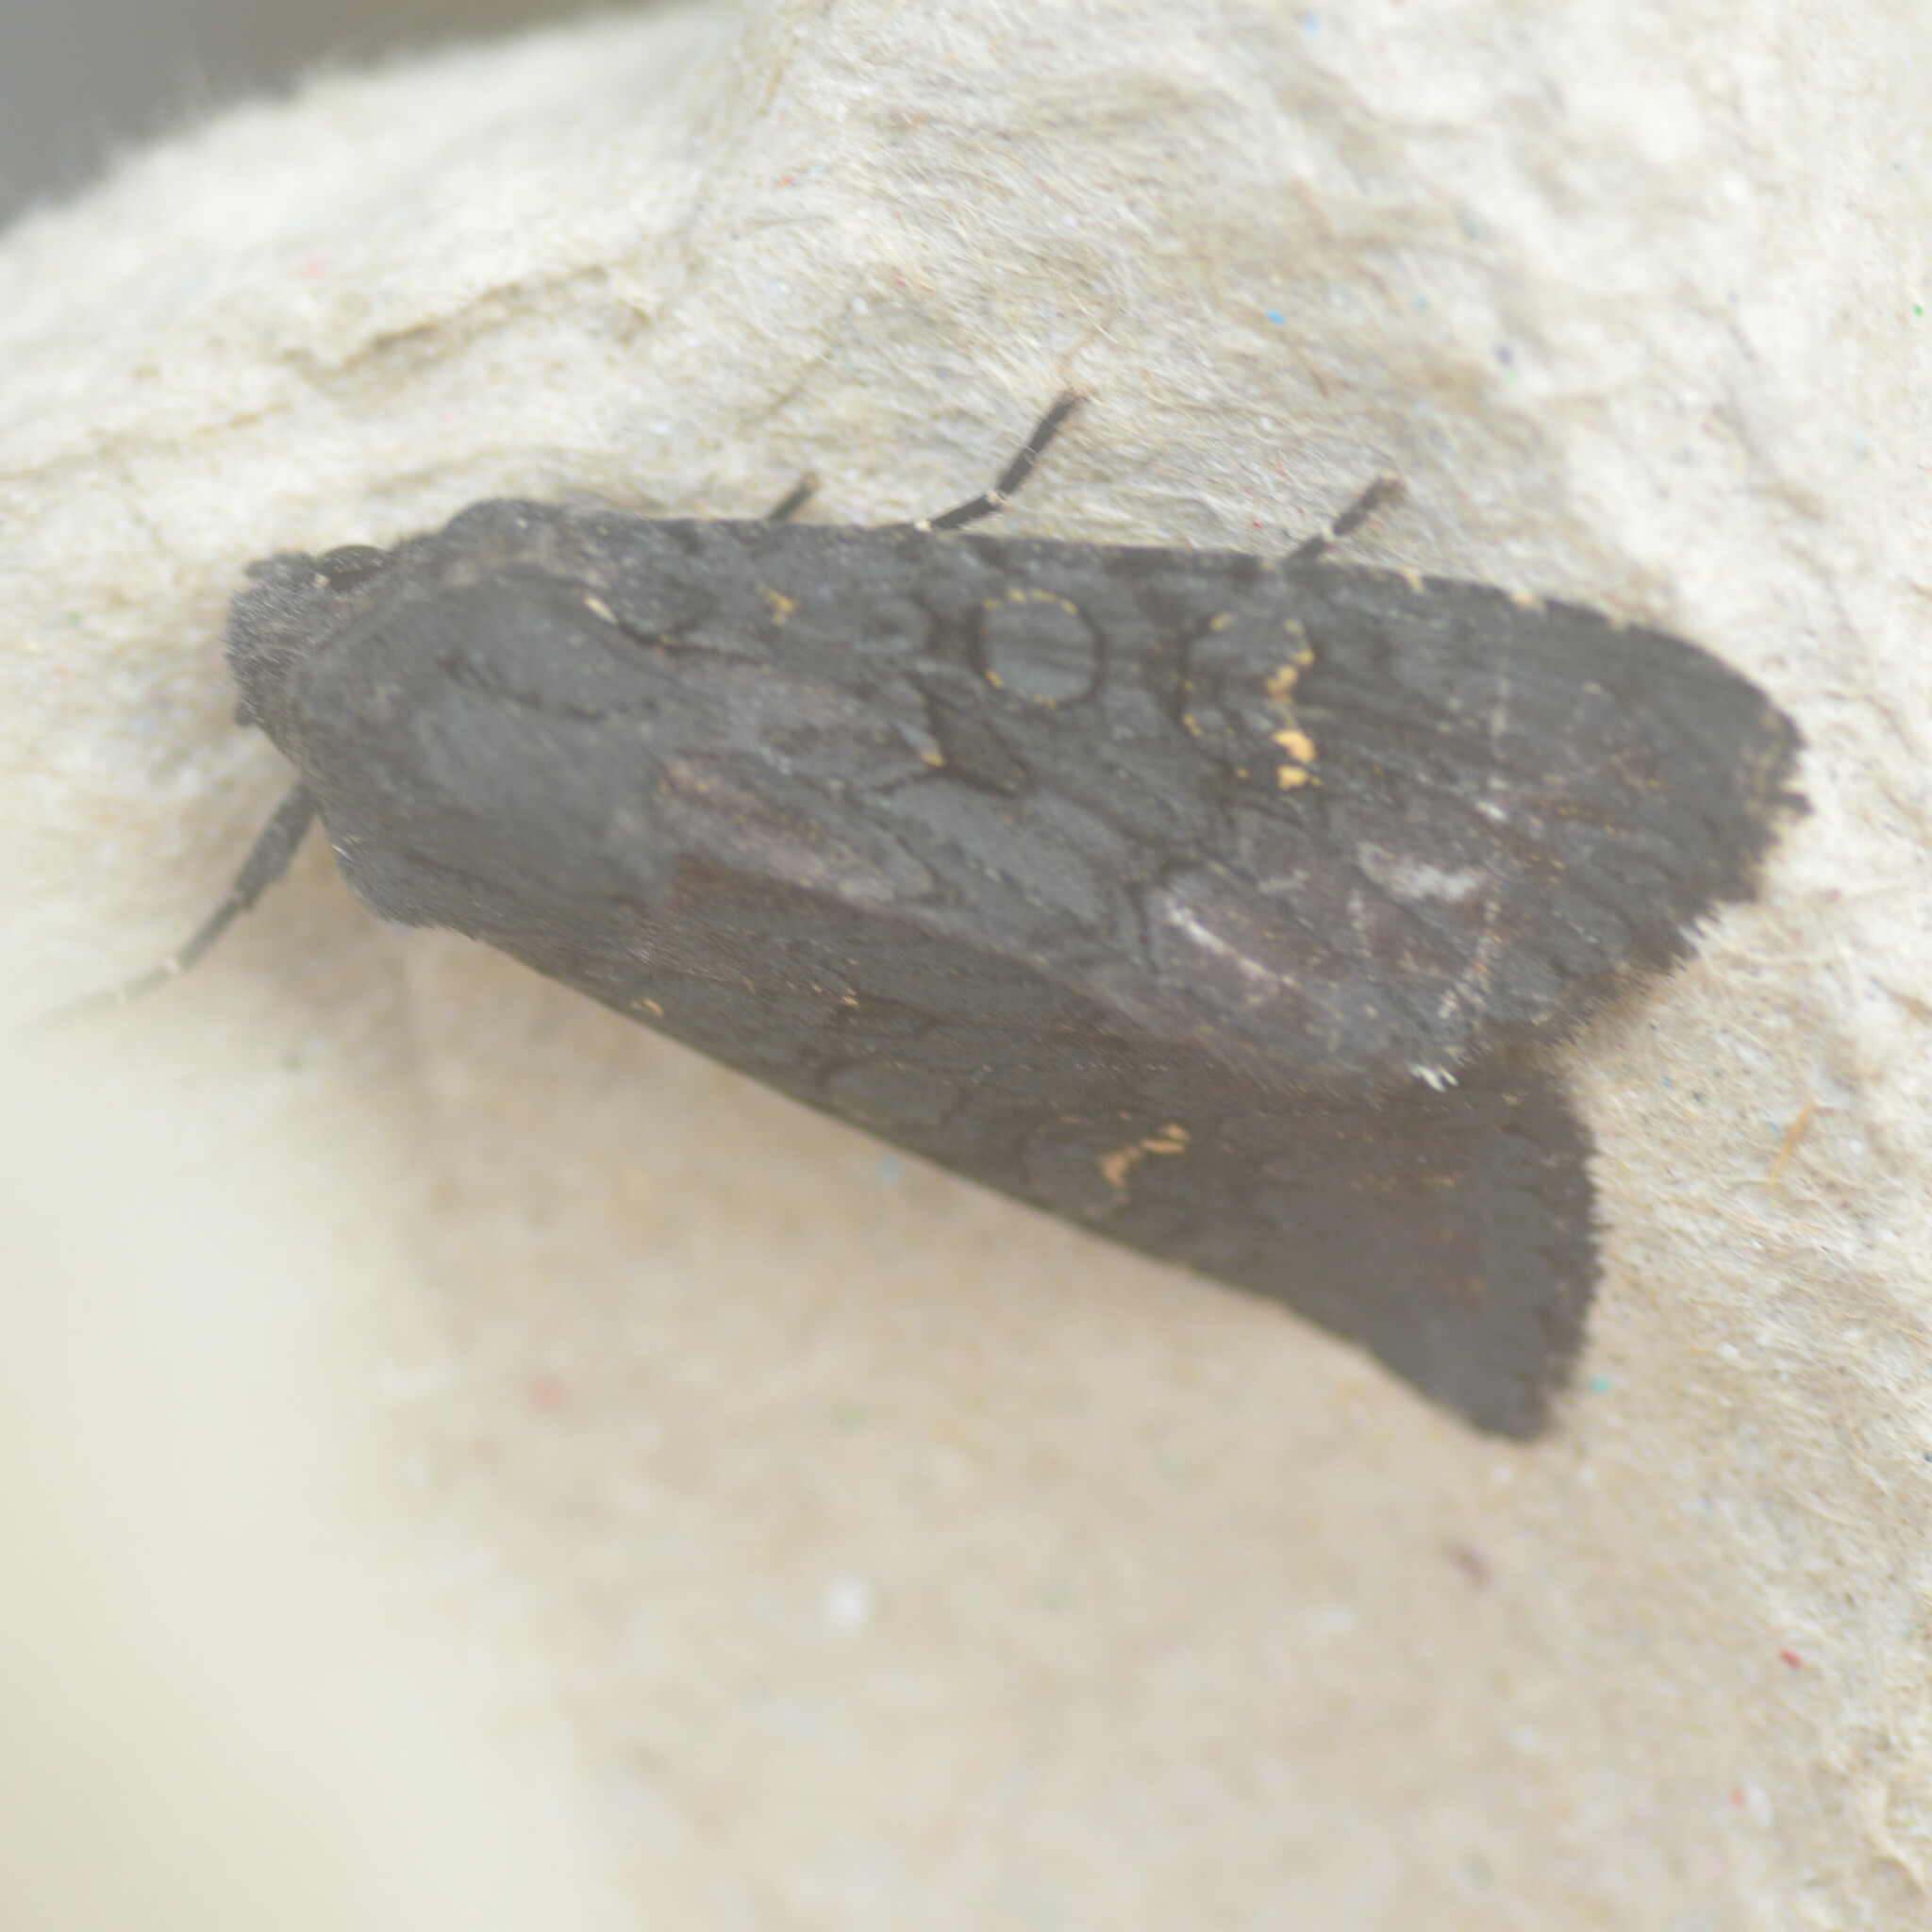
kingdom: Animalia
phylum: Arthropoda
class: Insecta
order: Lepidoptera
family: Noctuidae
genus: Aporophyla
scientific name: Aporophyla nigra
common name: Black rustic
